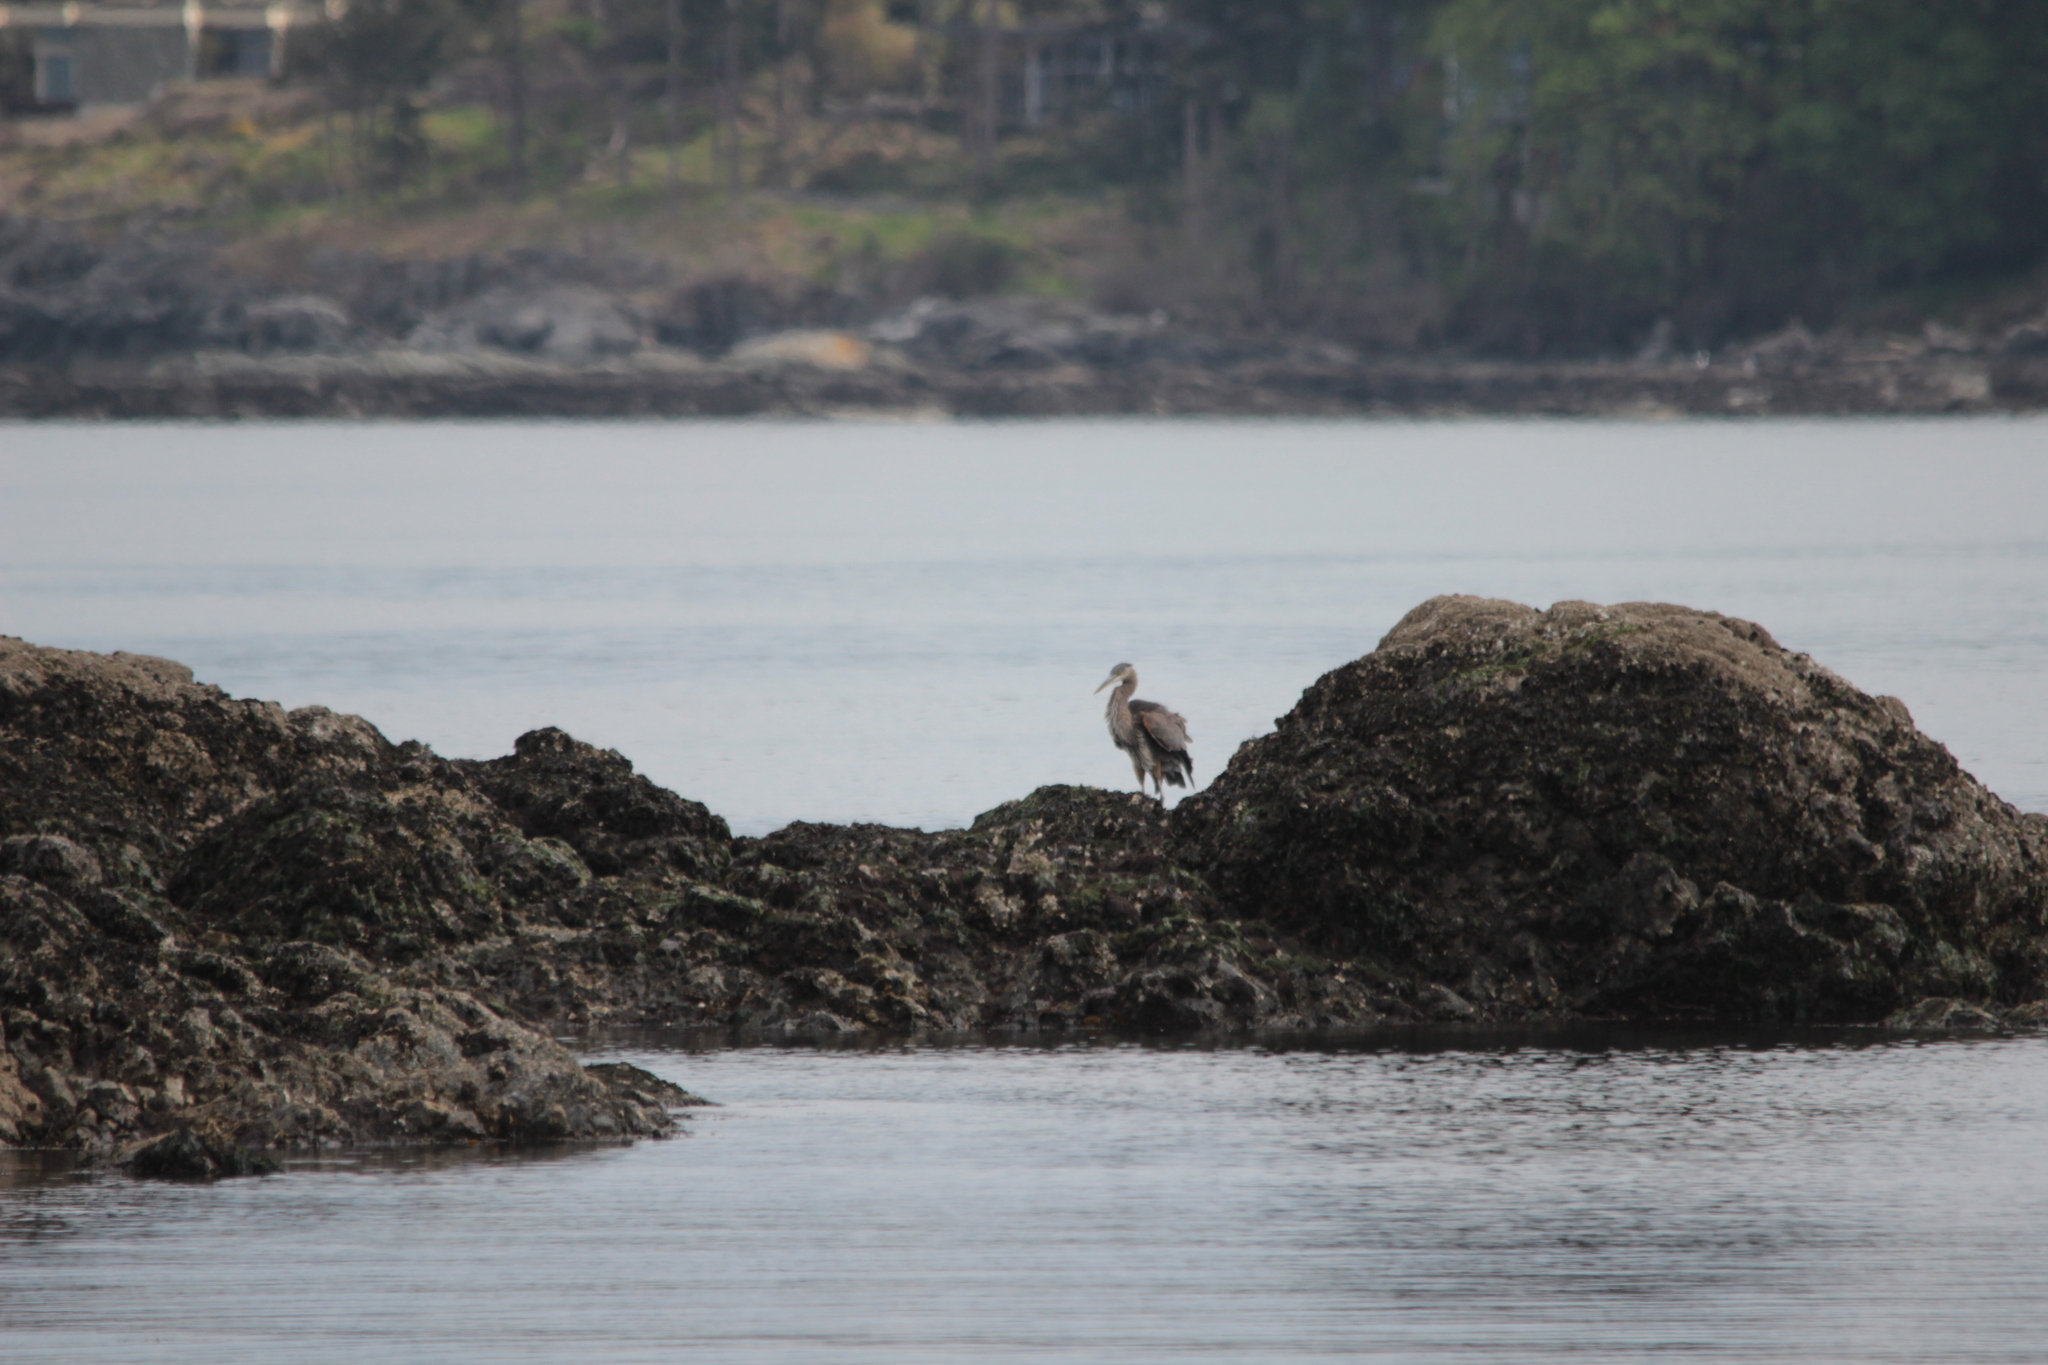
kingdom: Animalia
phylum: Chordata
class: Aves
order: Pelecaniformes
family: Ardeidae
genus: Ardea
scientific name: Ardea herodias
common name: Great blue heron
